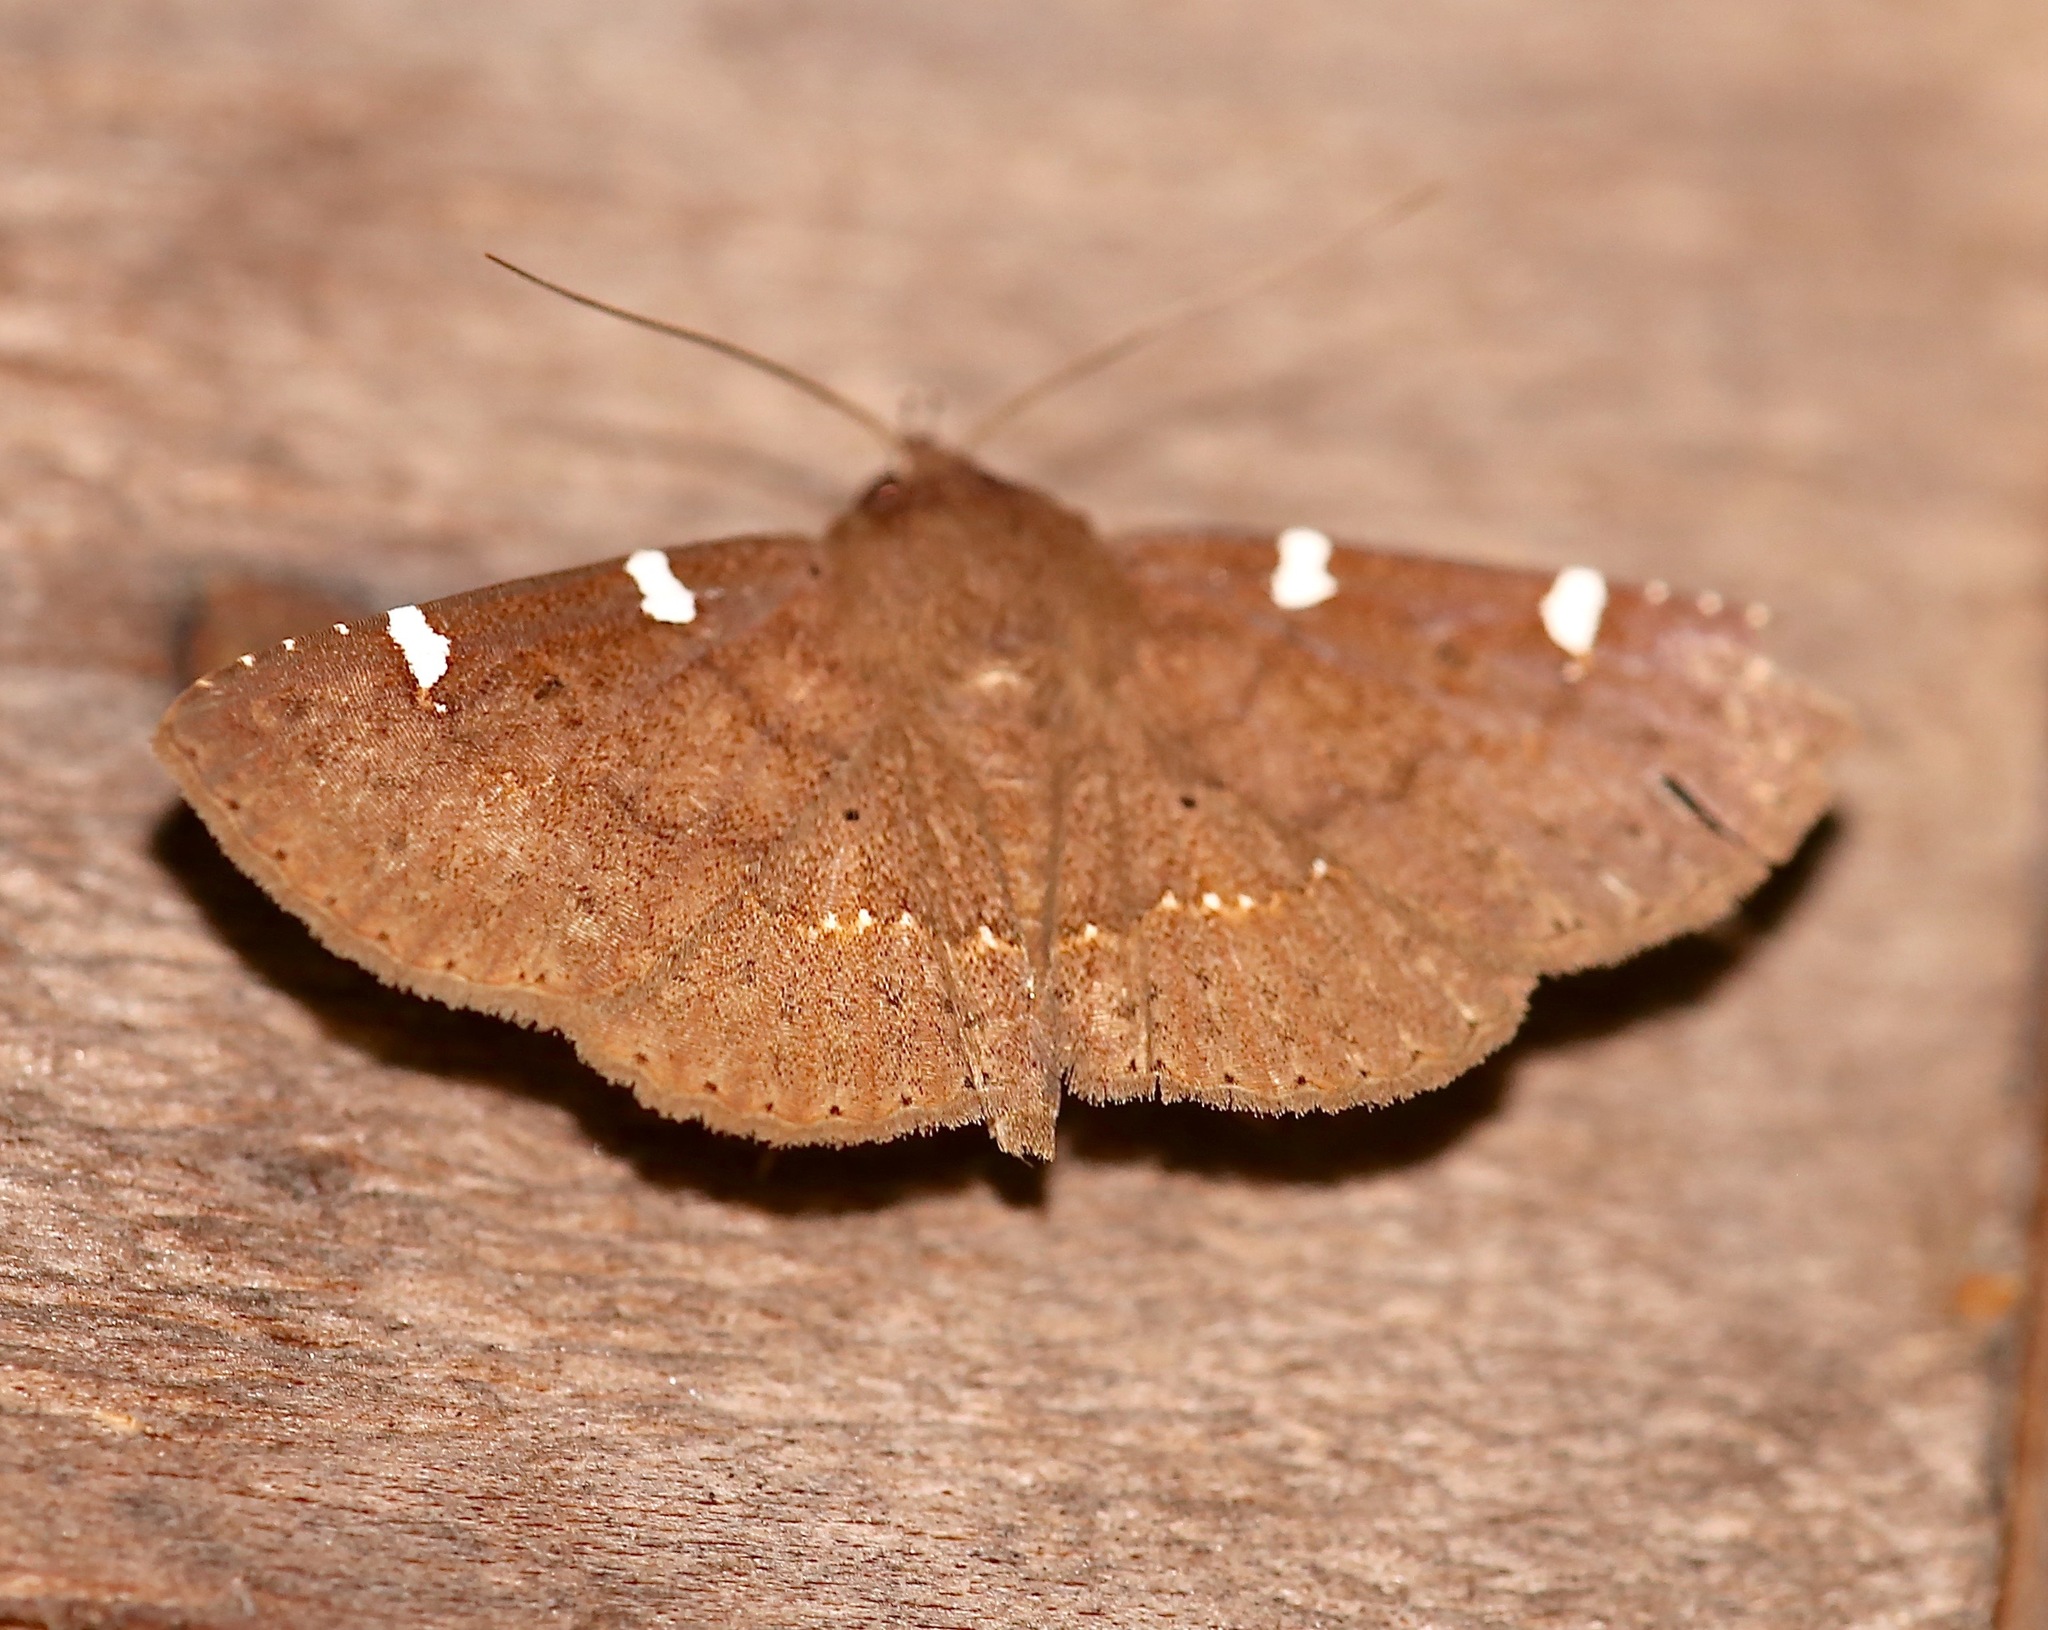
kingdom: Animalia
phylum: Arthropoda
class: Insecta
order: Lepidoptera
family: Erebidae
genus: Antiblemma
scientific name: Antiblemma concinnula
